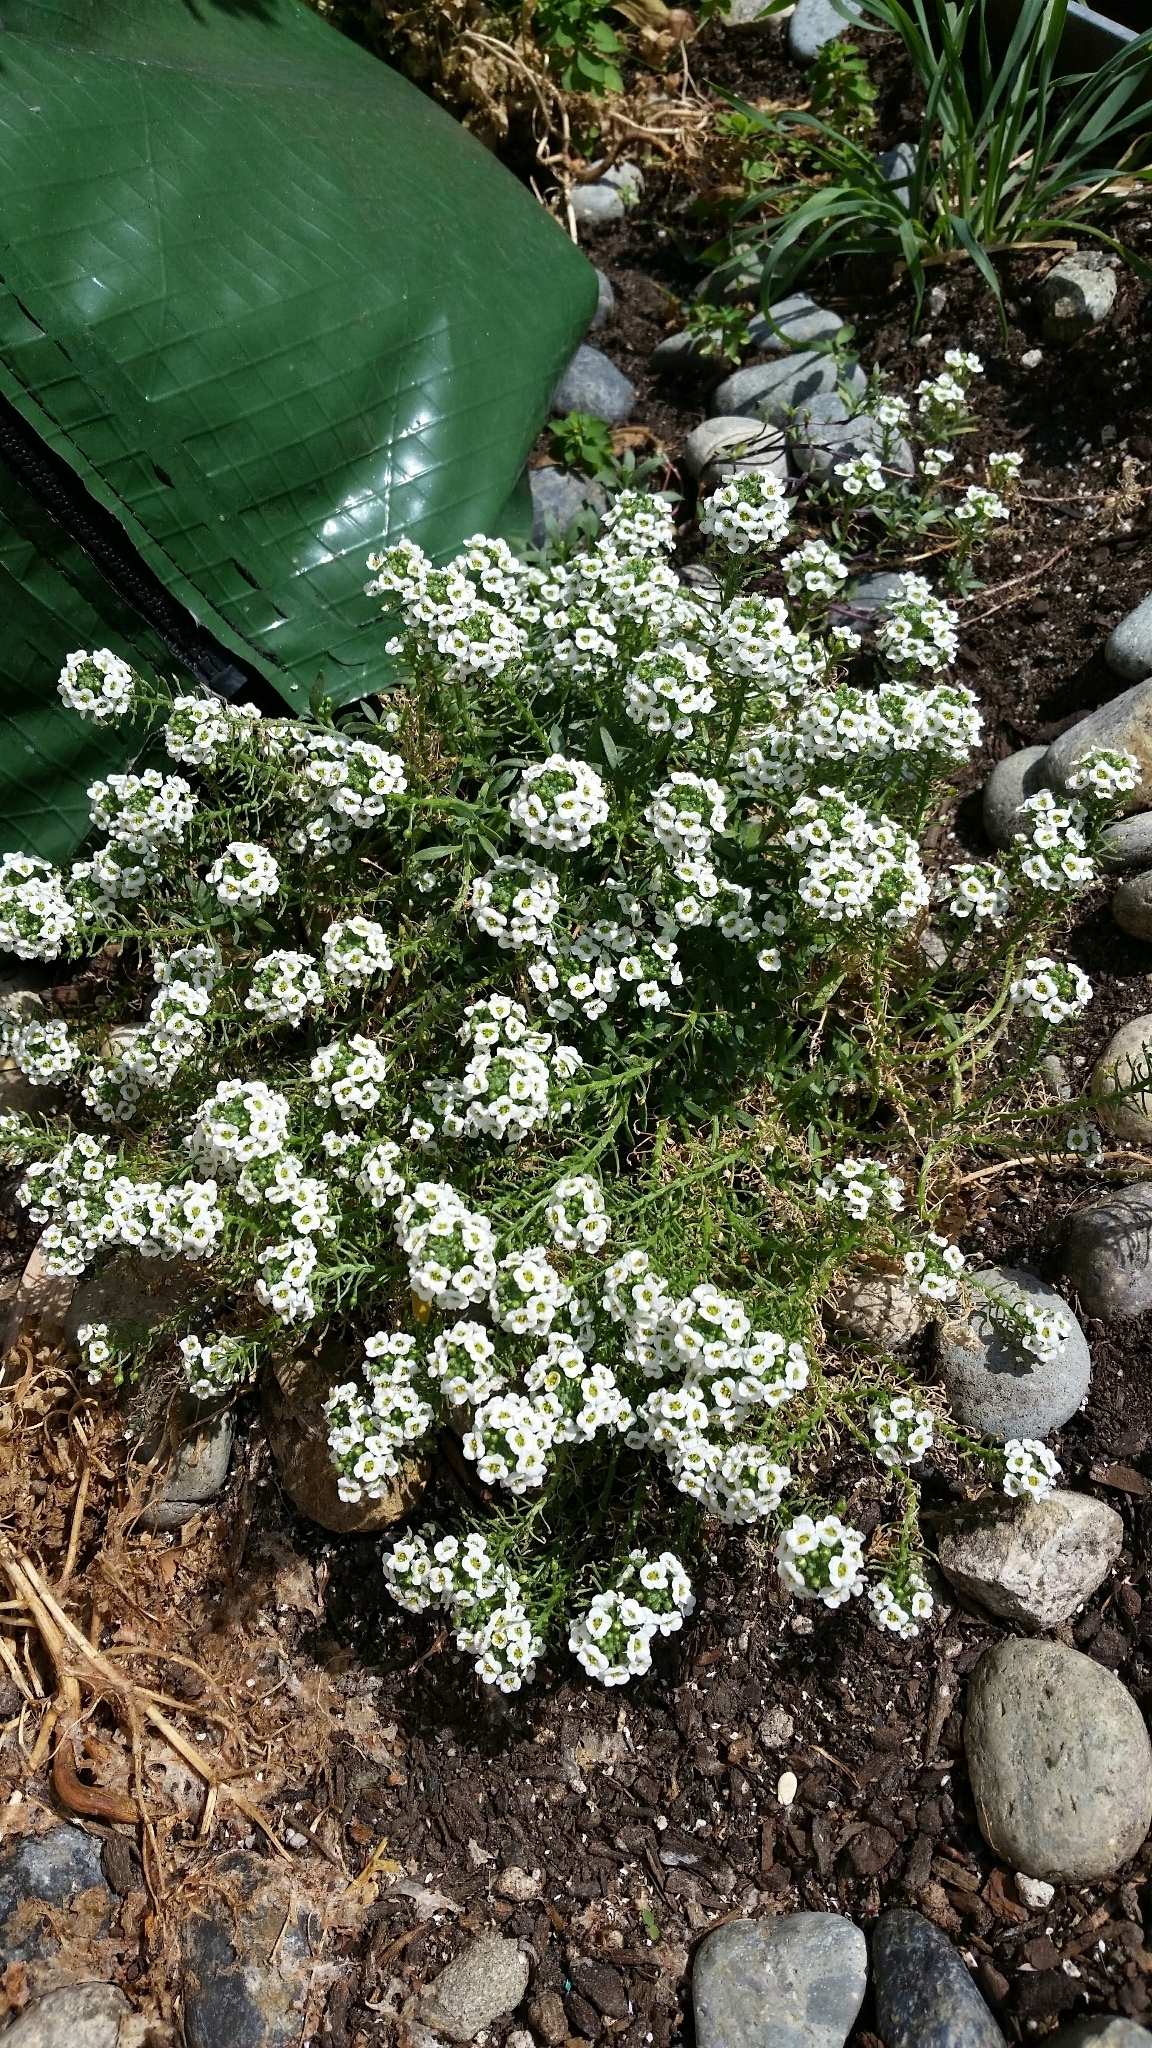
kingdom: Plantae
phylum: Tracheophyta
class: Magnoliopsida
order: Brassicales
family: Brassicaceae
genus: Lobularia
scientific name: Lobularia maritima
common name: Sweet alison
